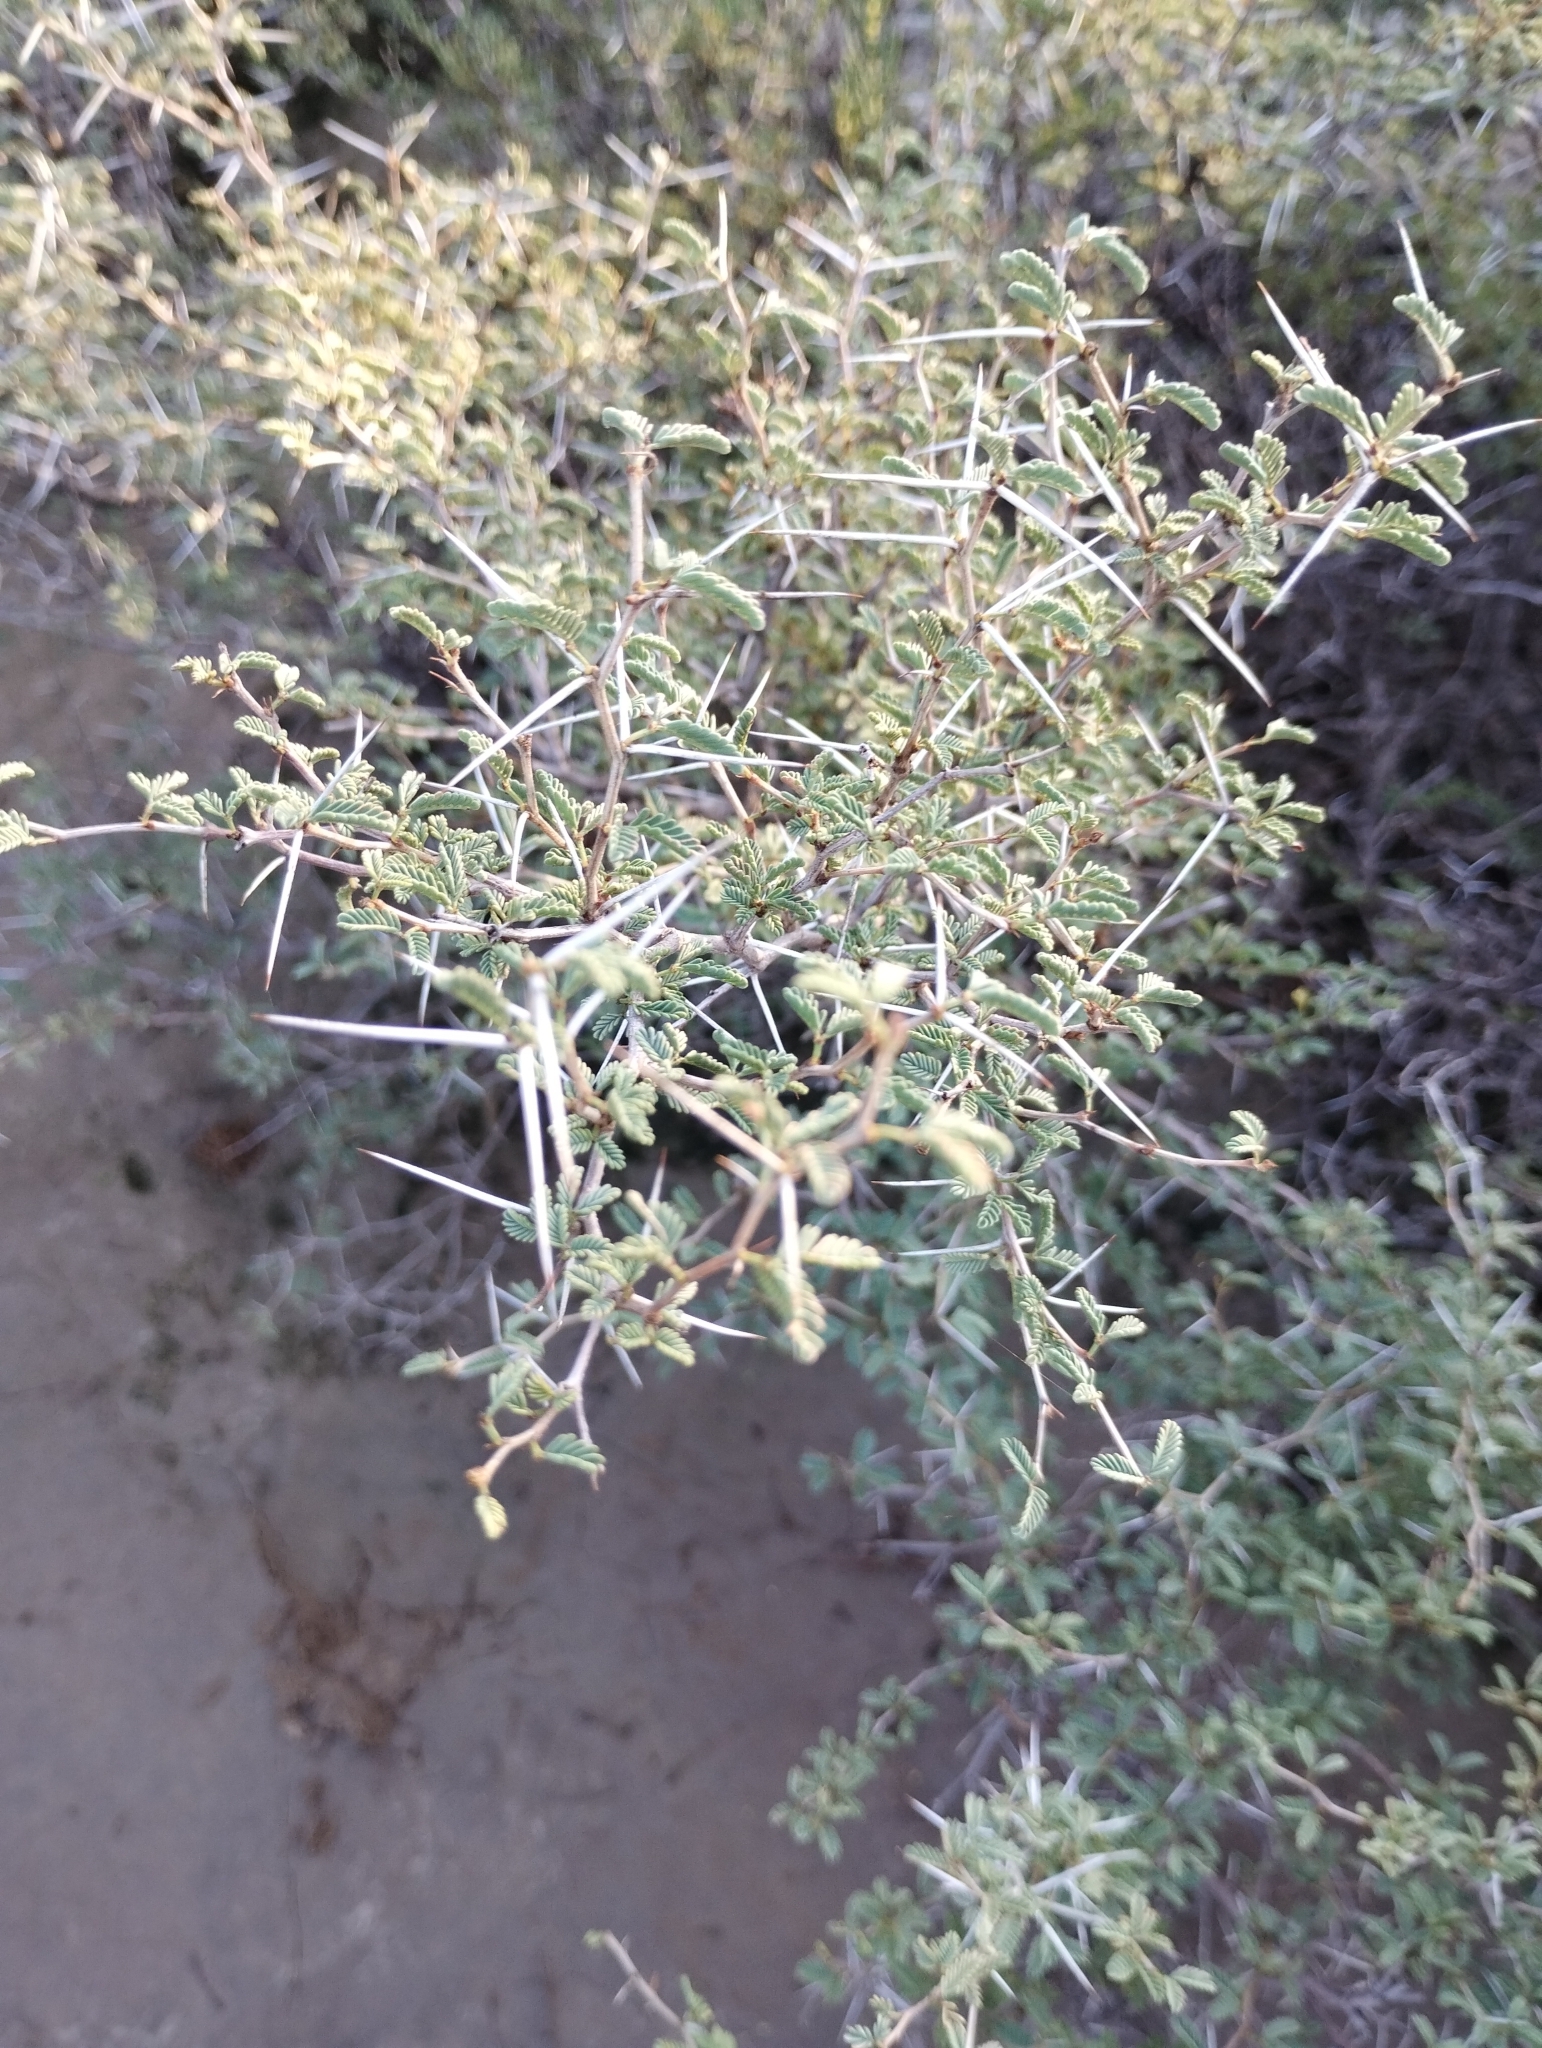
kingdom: Plantae
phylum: Tracheophyta
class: Magnoliopsida
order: Fabales
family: Fabaceae
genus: Prosopis
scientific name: Prosopis reptans
